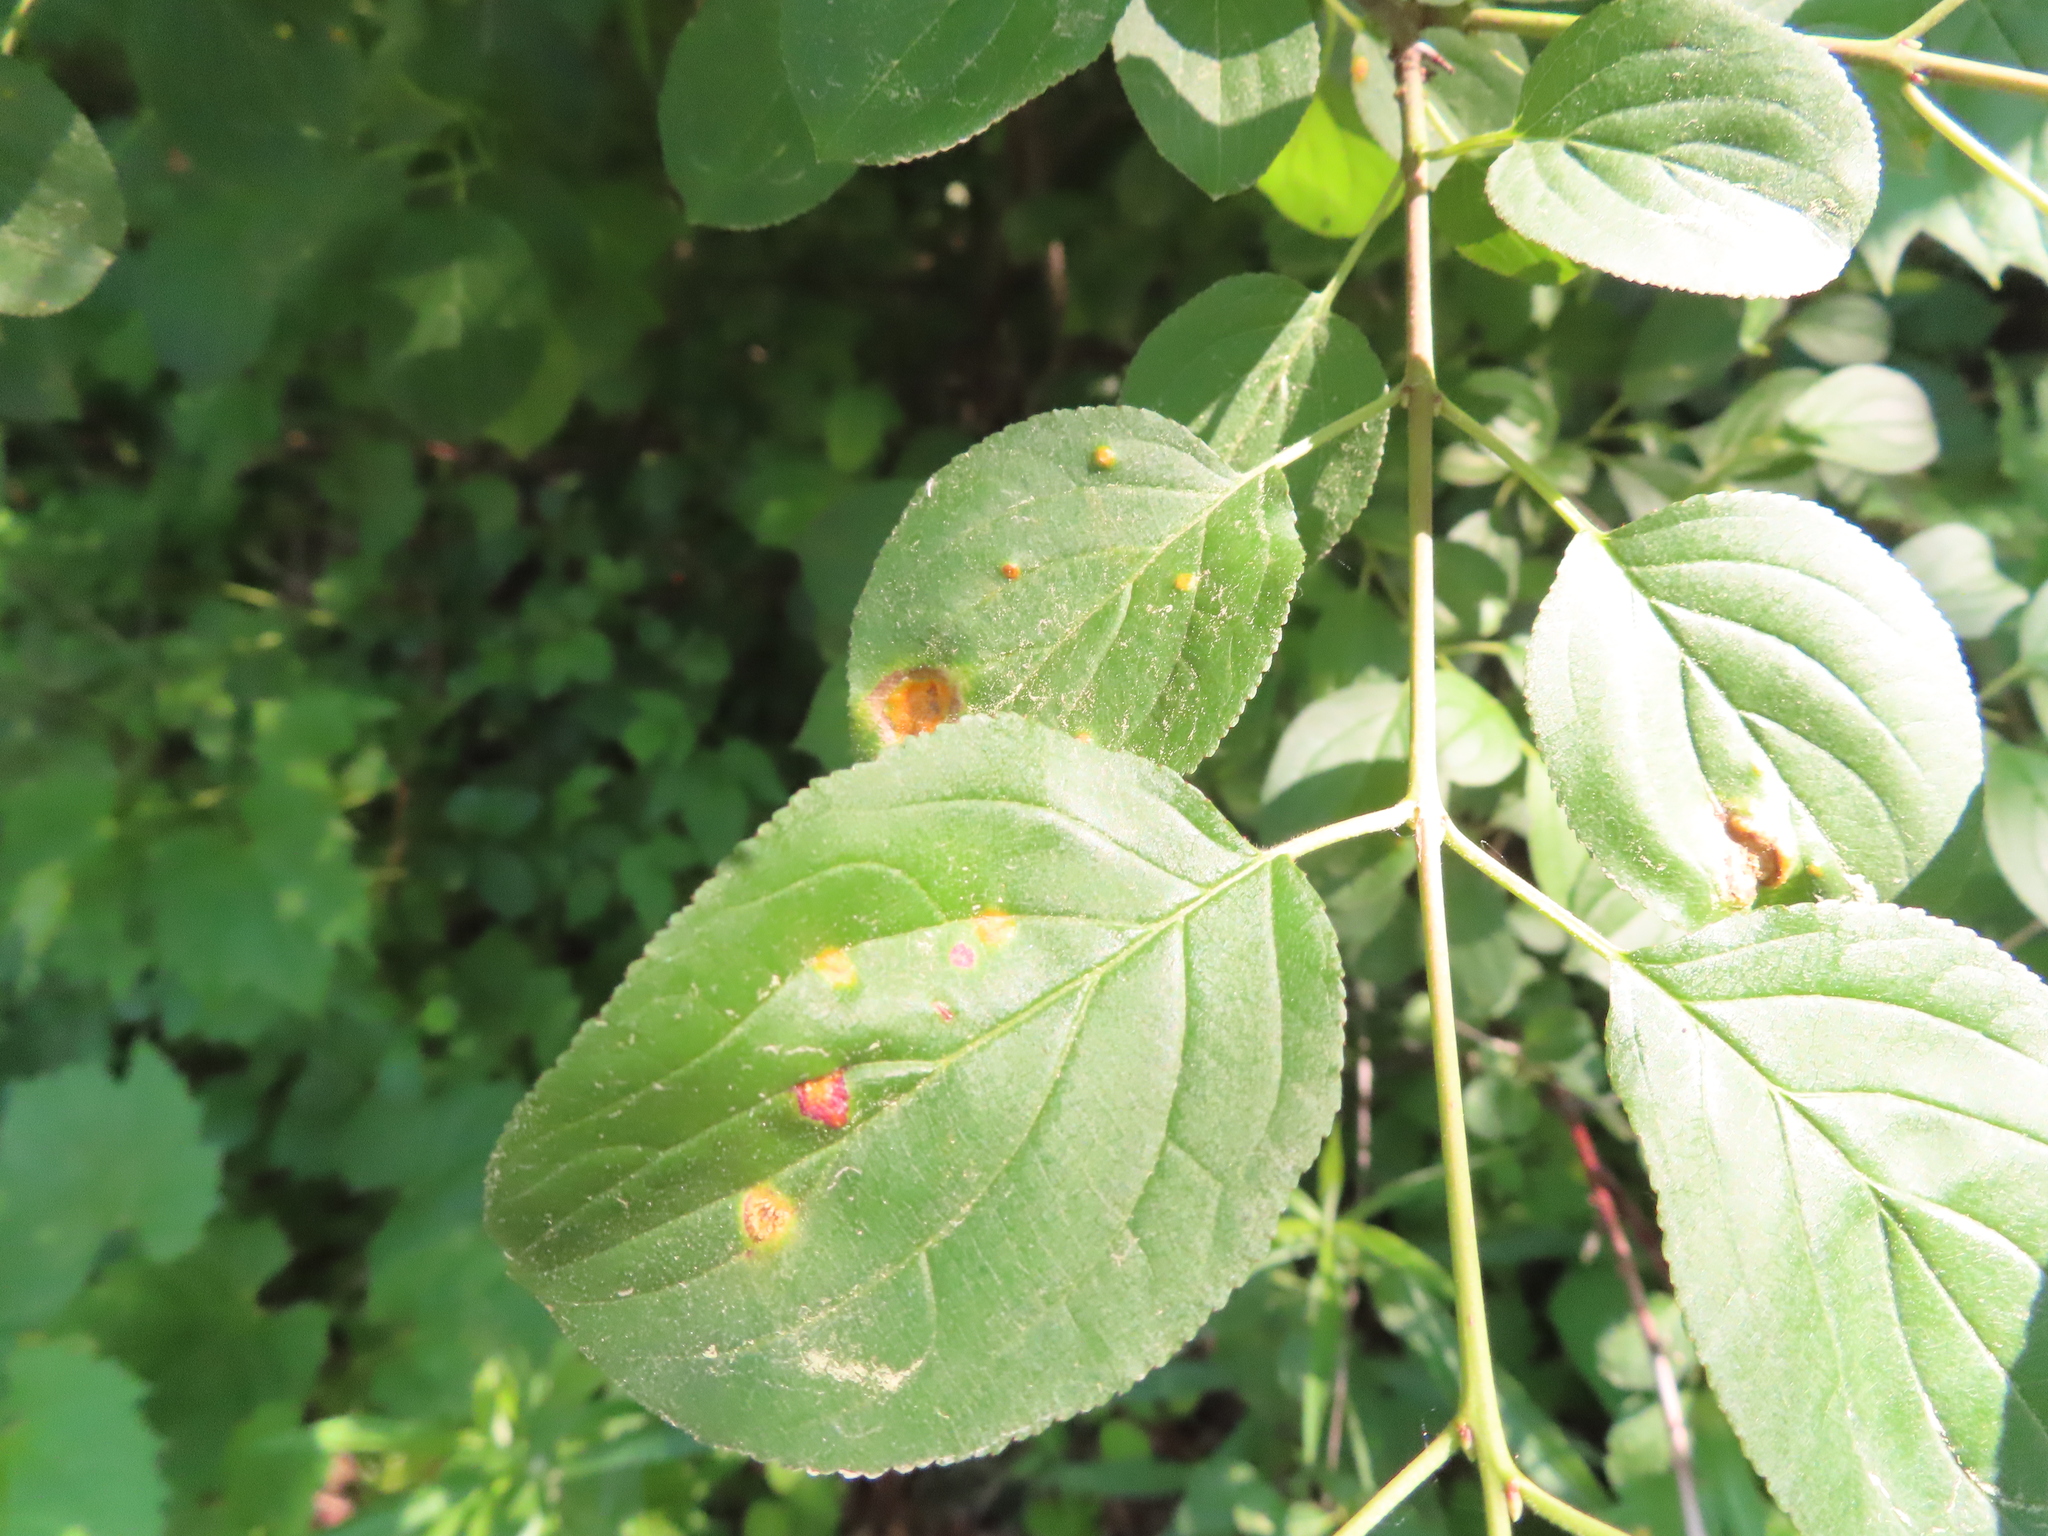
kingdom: Plantae
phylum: Tracheophyta
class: Magnoliopsida
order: Rosales
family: Rhamnaceae
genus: Rhamnus
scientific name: Rhamnus cathartica
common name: Common buckthorn
